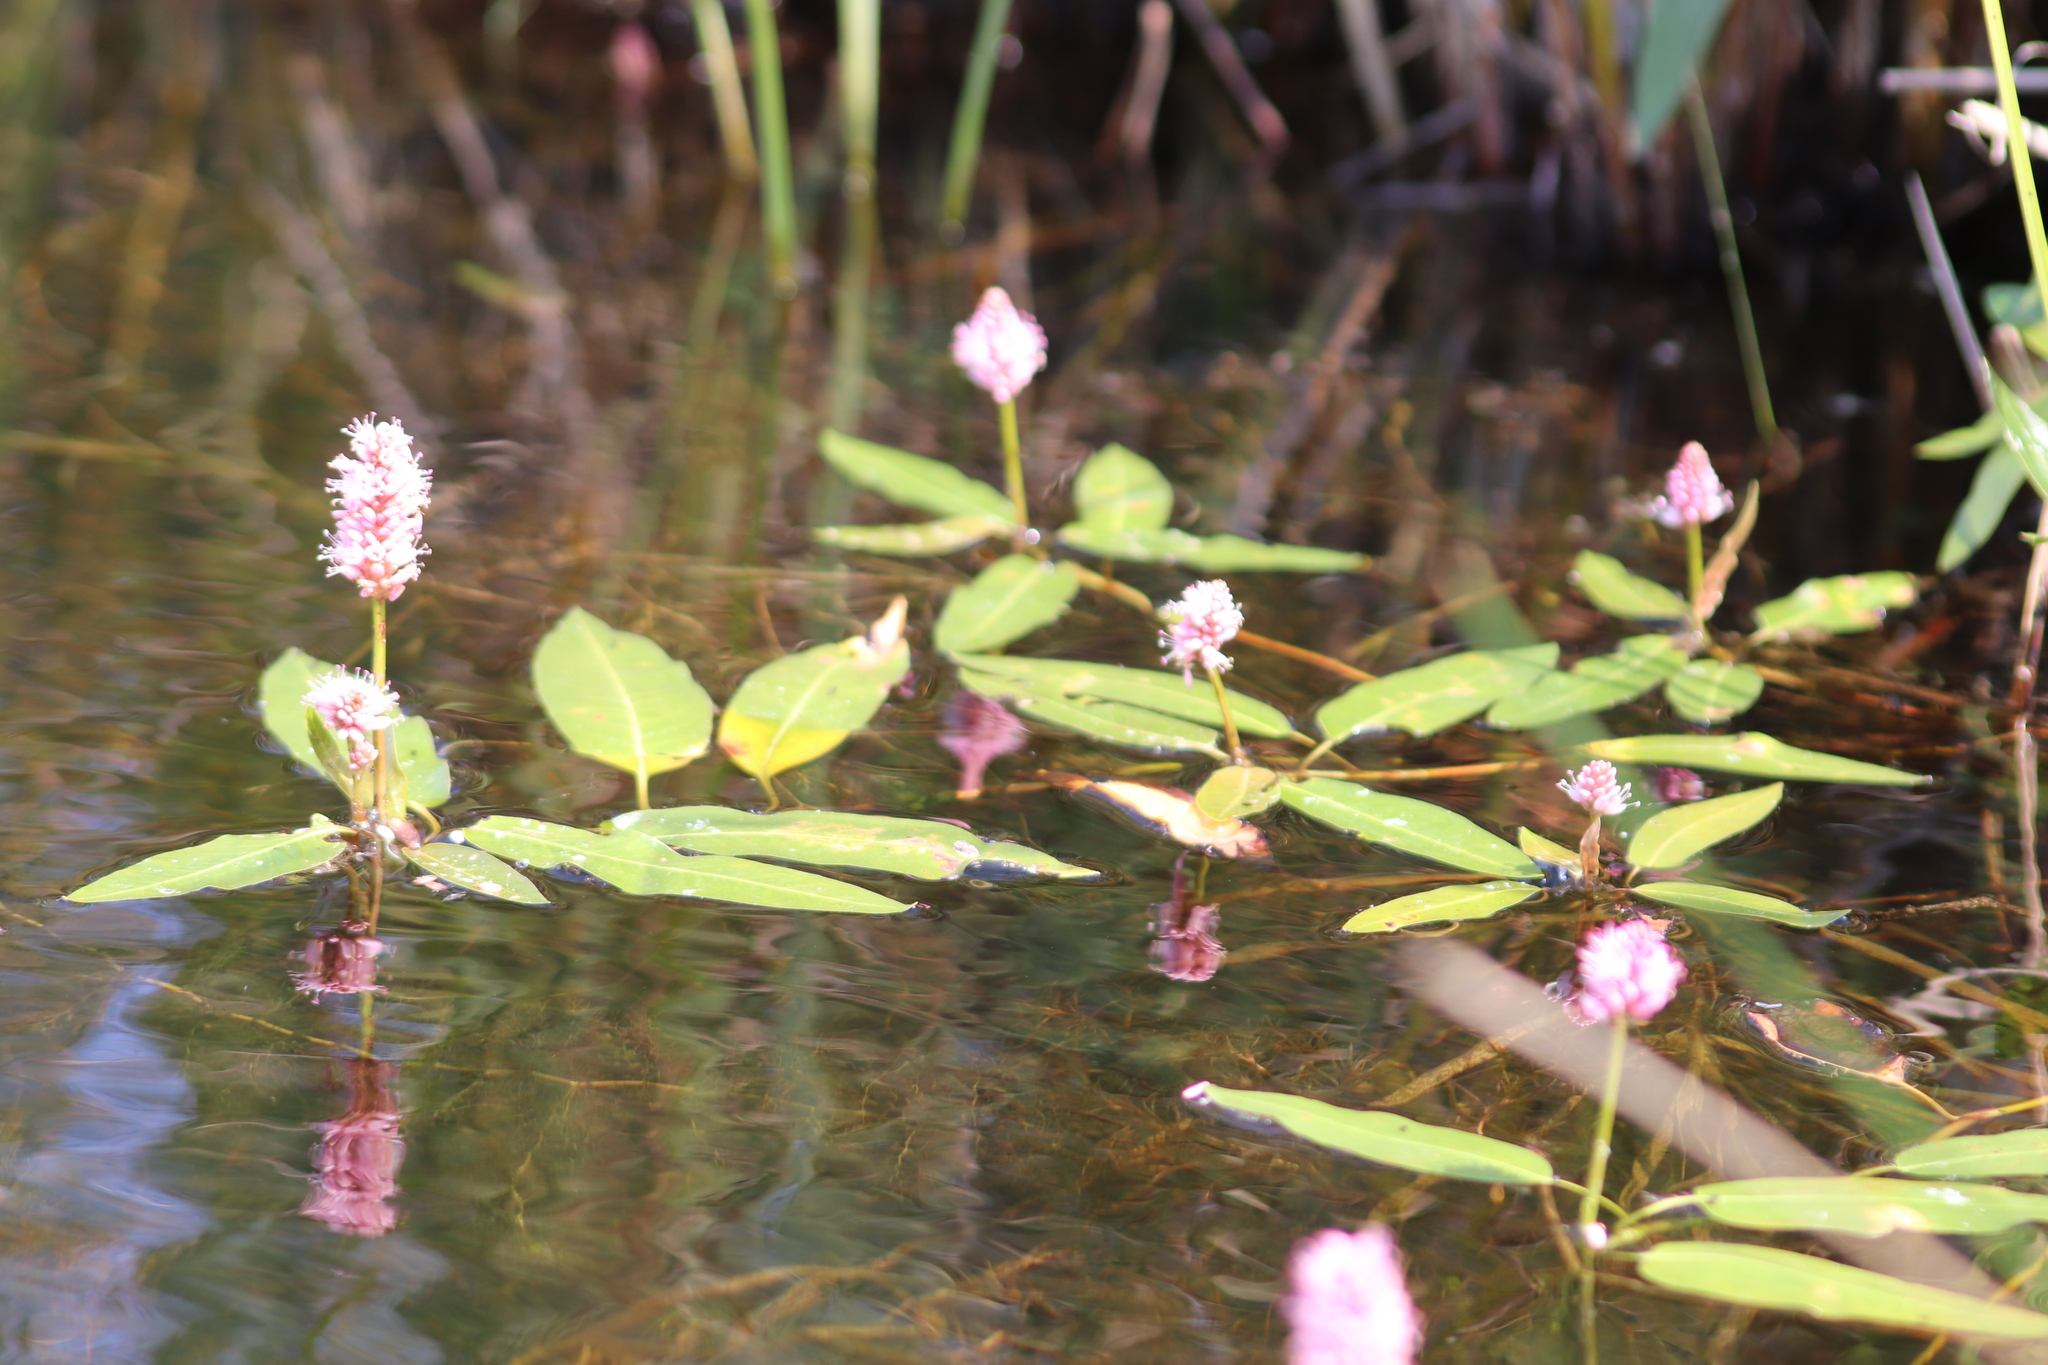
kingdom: Plantae
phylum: Tracheophyta
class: Magnoliopsida
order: Caryophyllales
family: Polygonaceae
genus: Persicaria
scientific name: Persicaria amphibia
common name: Amphibious bistort
